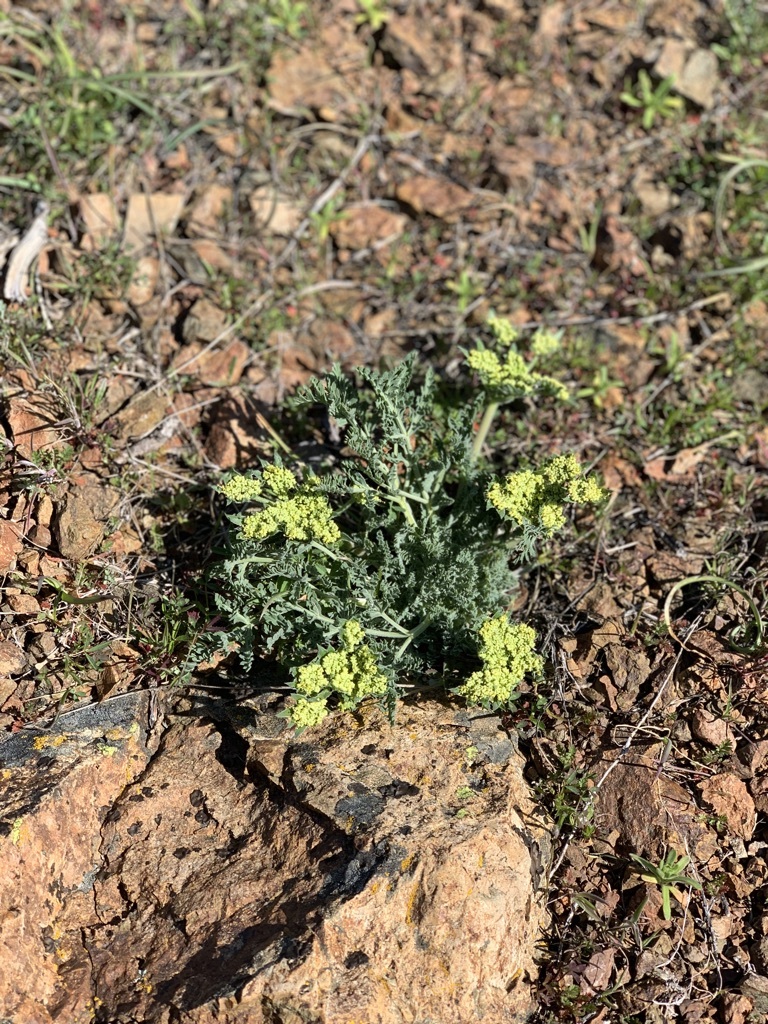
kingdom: Plantae
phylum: Tracheophyta
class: Magnoliopsida
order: Apiales
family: Apiaceae
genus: Lomatium
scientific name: Lomatium macrocarpum
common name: Big-seed biscuitroot
